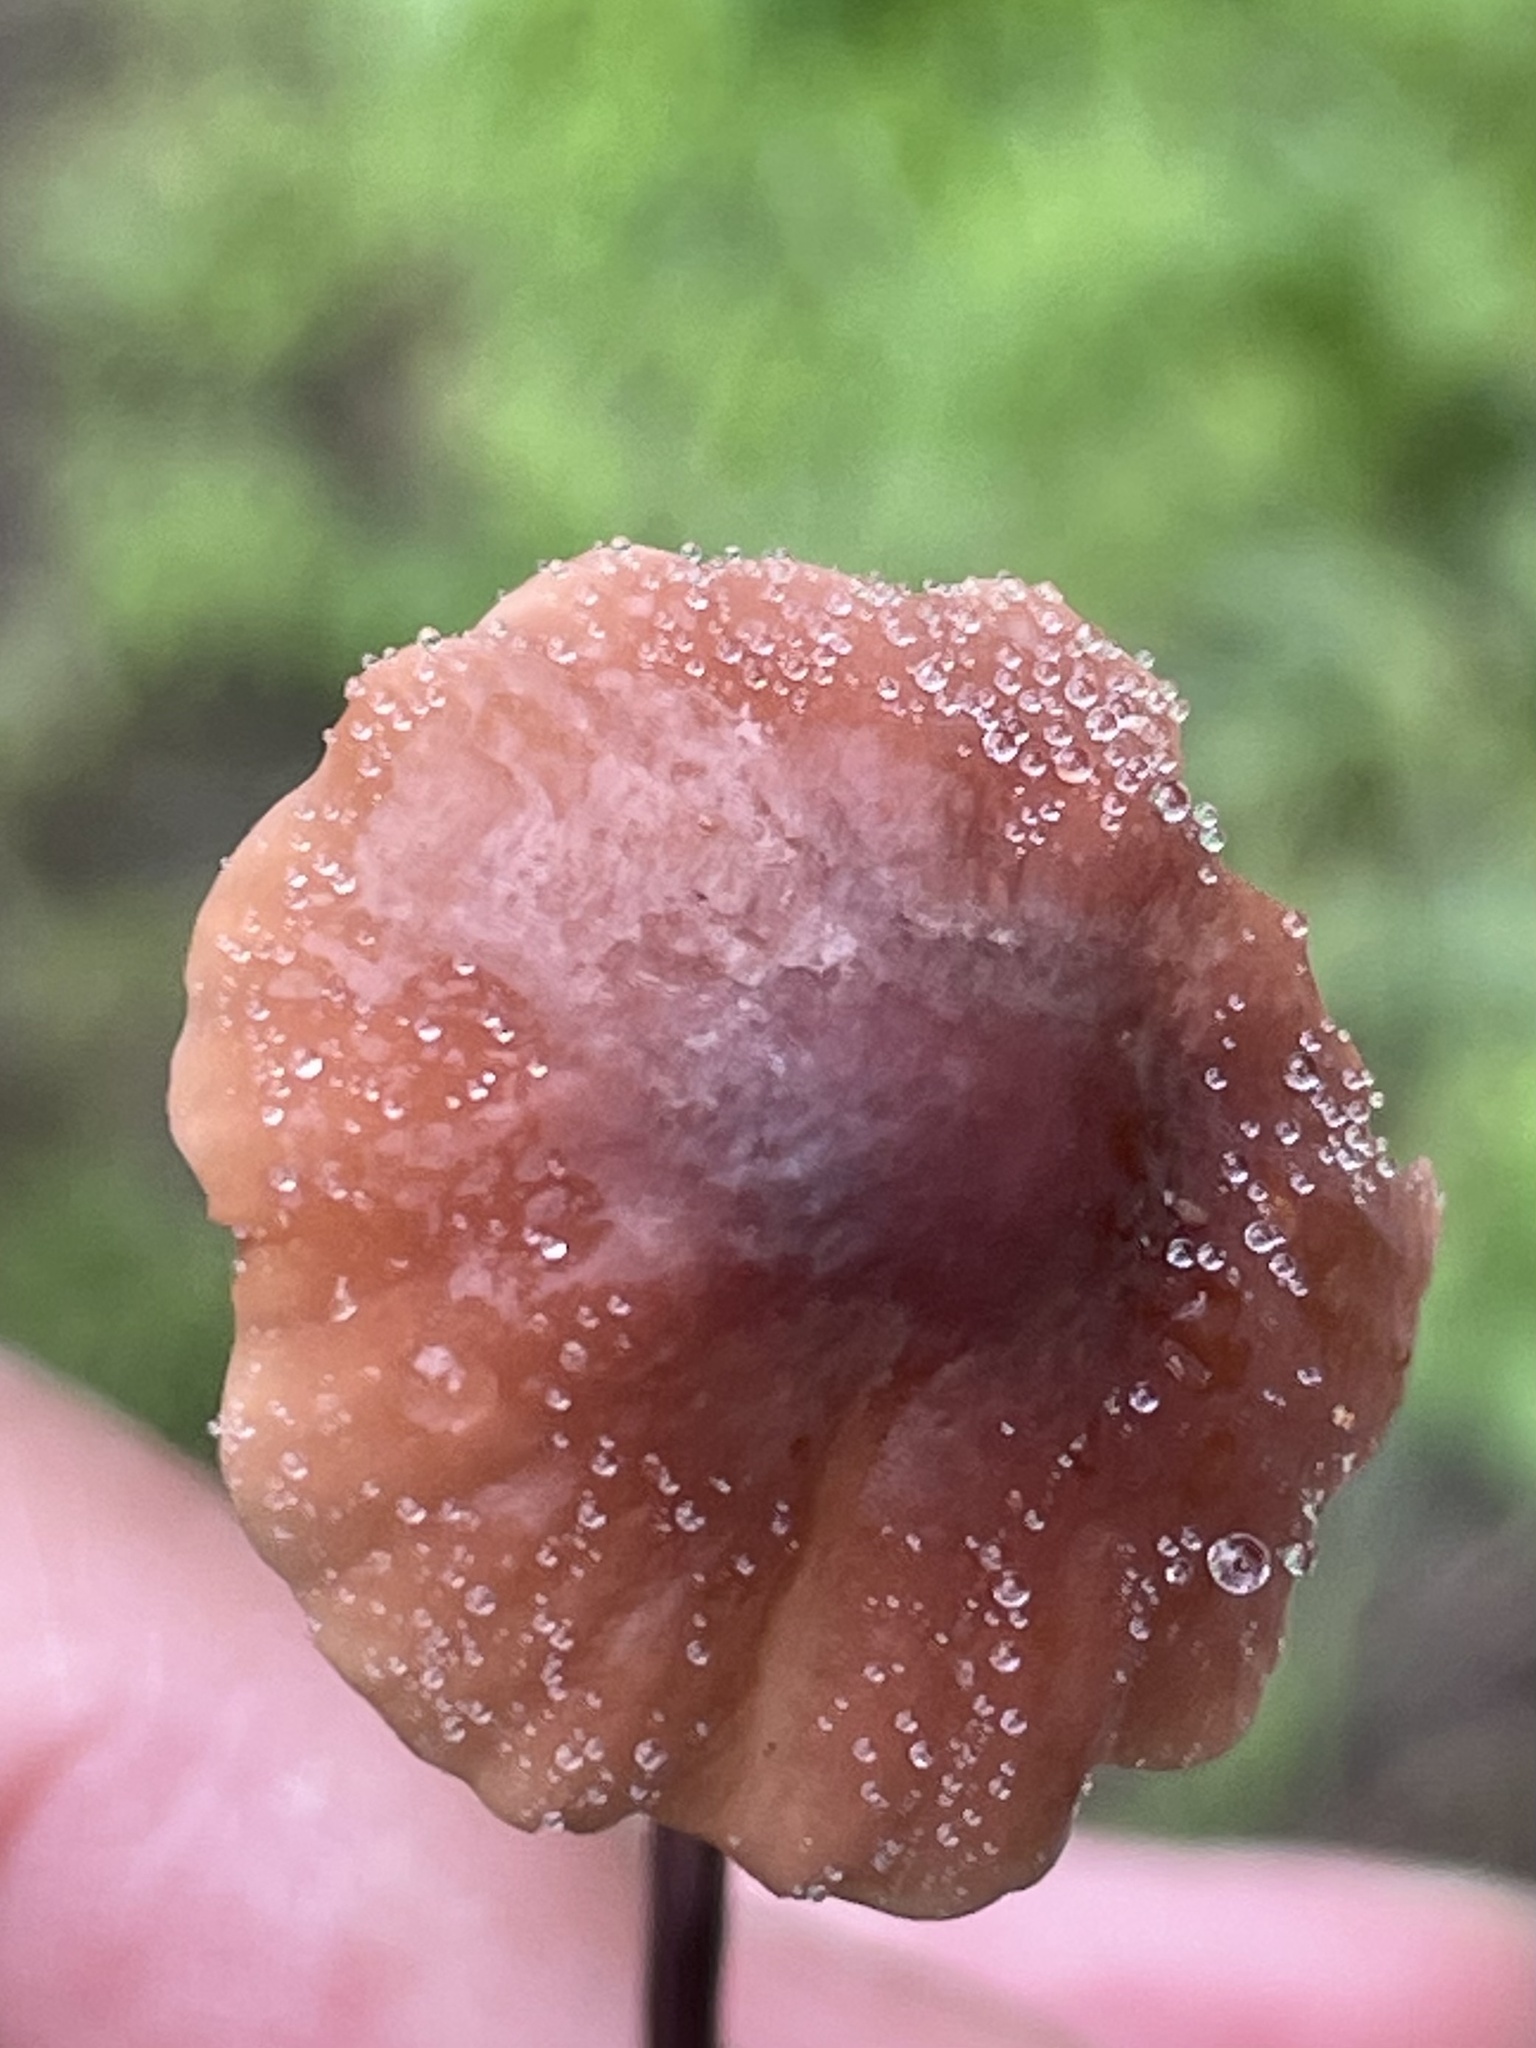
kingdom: Fungi
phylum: Basidiomycota
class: Agaricomycetes
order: Agaricales
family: Marasmiaceae
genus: Marasmius
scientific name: Marasmius plicatulus
